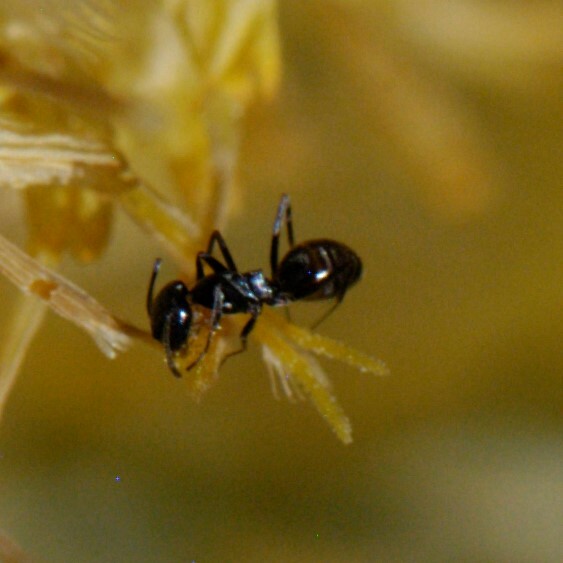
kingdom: Animalia
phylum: Arthropoda
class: Insecta
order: Hymenoptera
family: Formicidae
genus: Dorymyrmex
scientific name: Dorymyrmex
